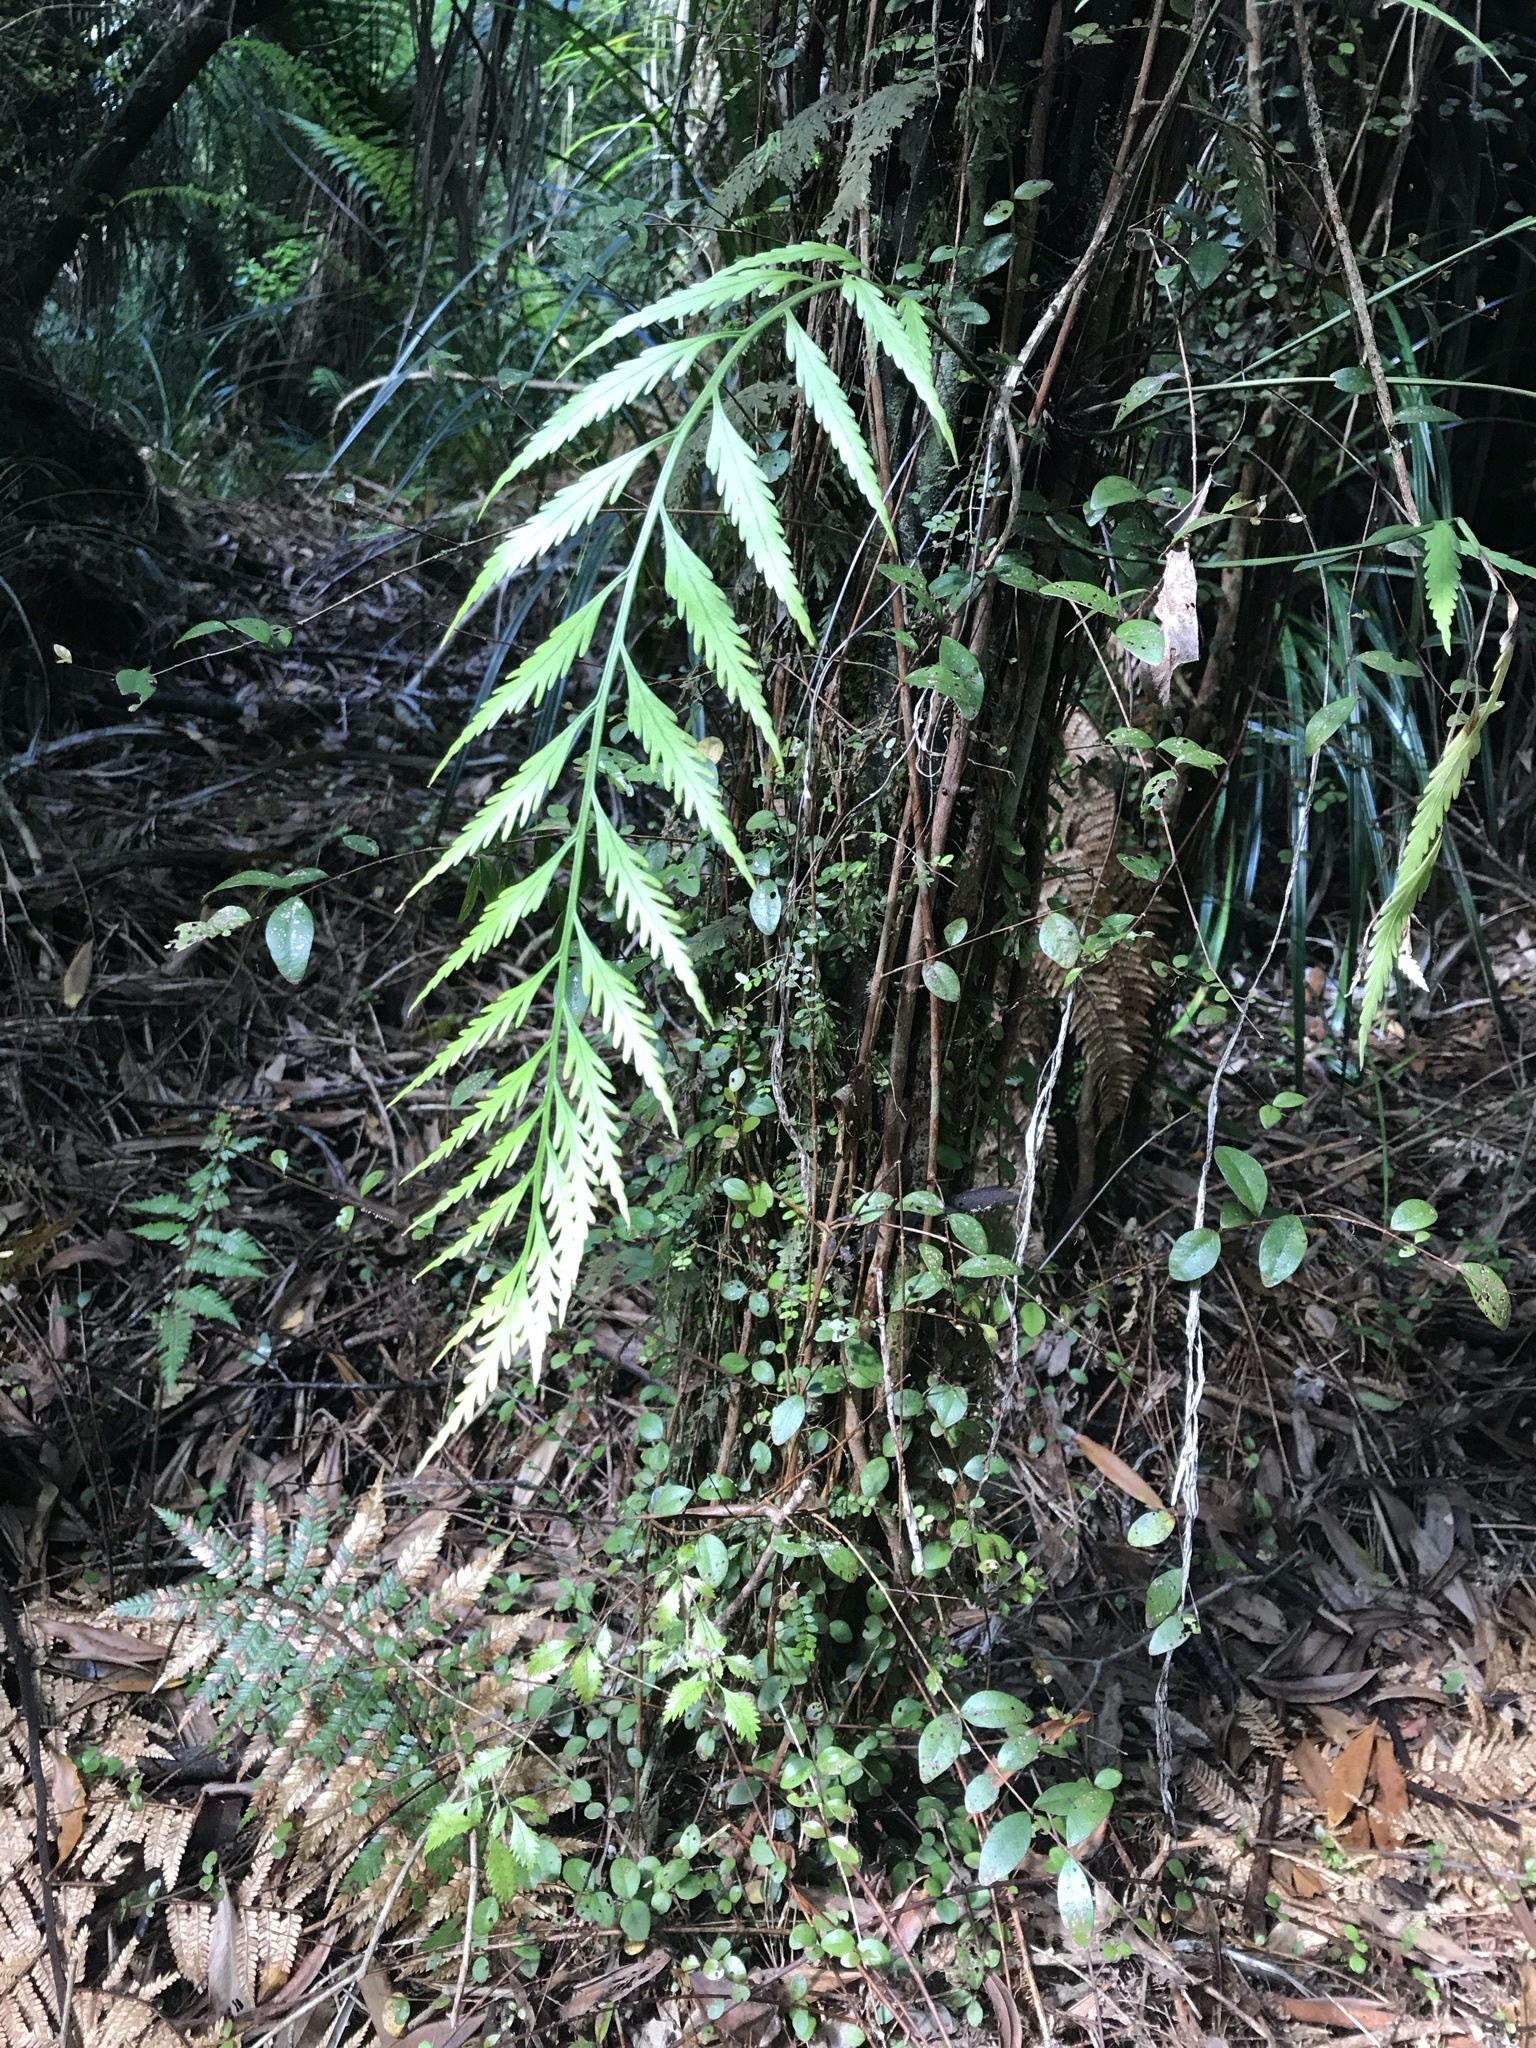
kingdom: Plantae
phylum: Tracheophyta
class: Polypodiopsida
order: Polypodiales
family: Aspleniaceae
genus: Asplenium
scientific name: Asplenium flaccidum
